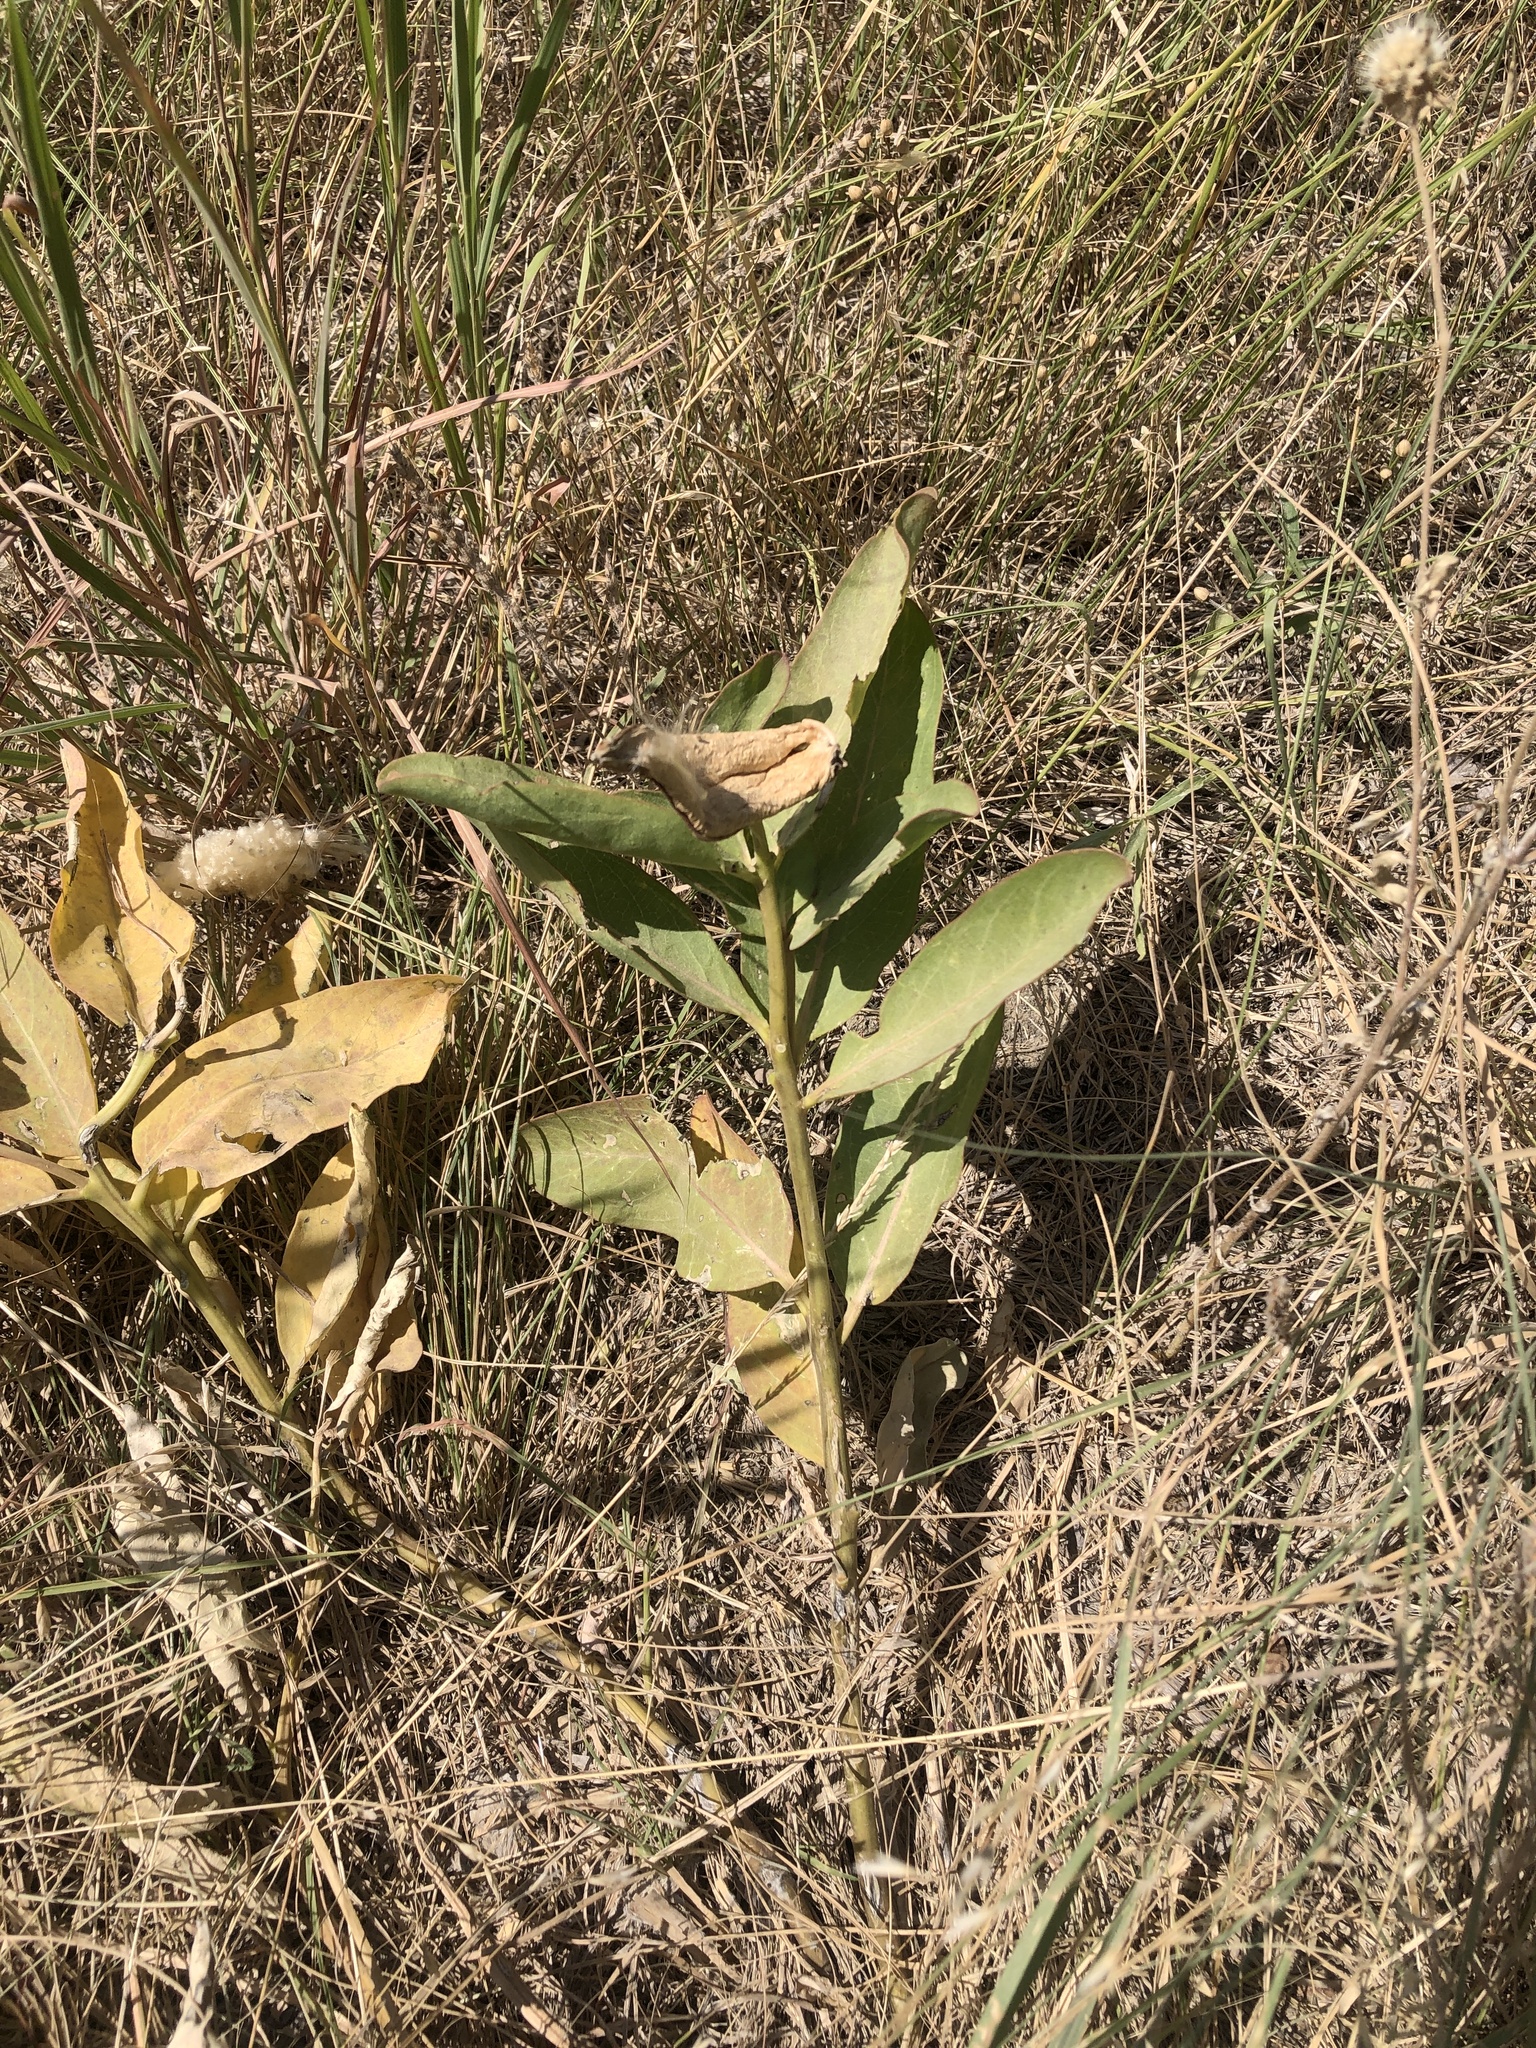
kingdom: Plantae
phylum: Tracheophyta
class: Magnoliopsida
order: Gentianales
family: Apocynaceae
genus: Asclepias
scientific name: Asclepias viridis
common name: Antelope-horns
